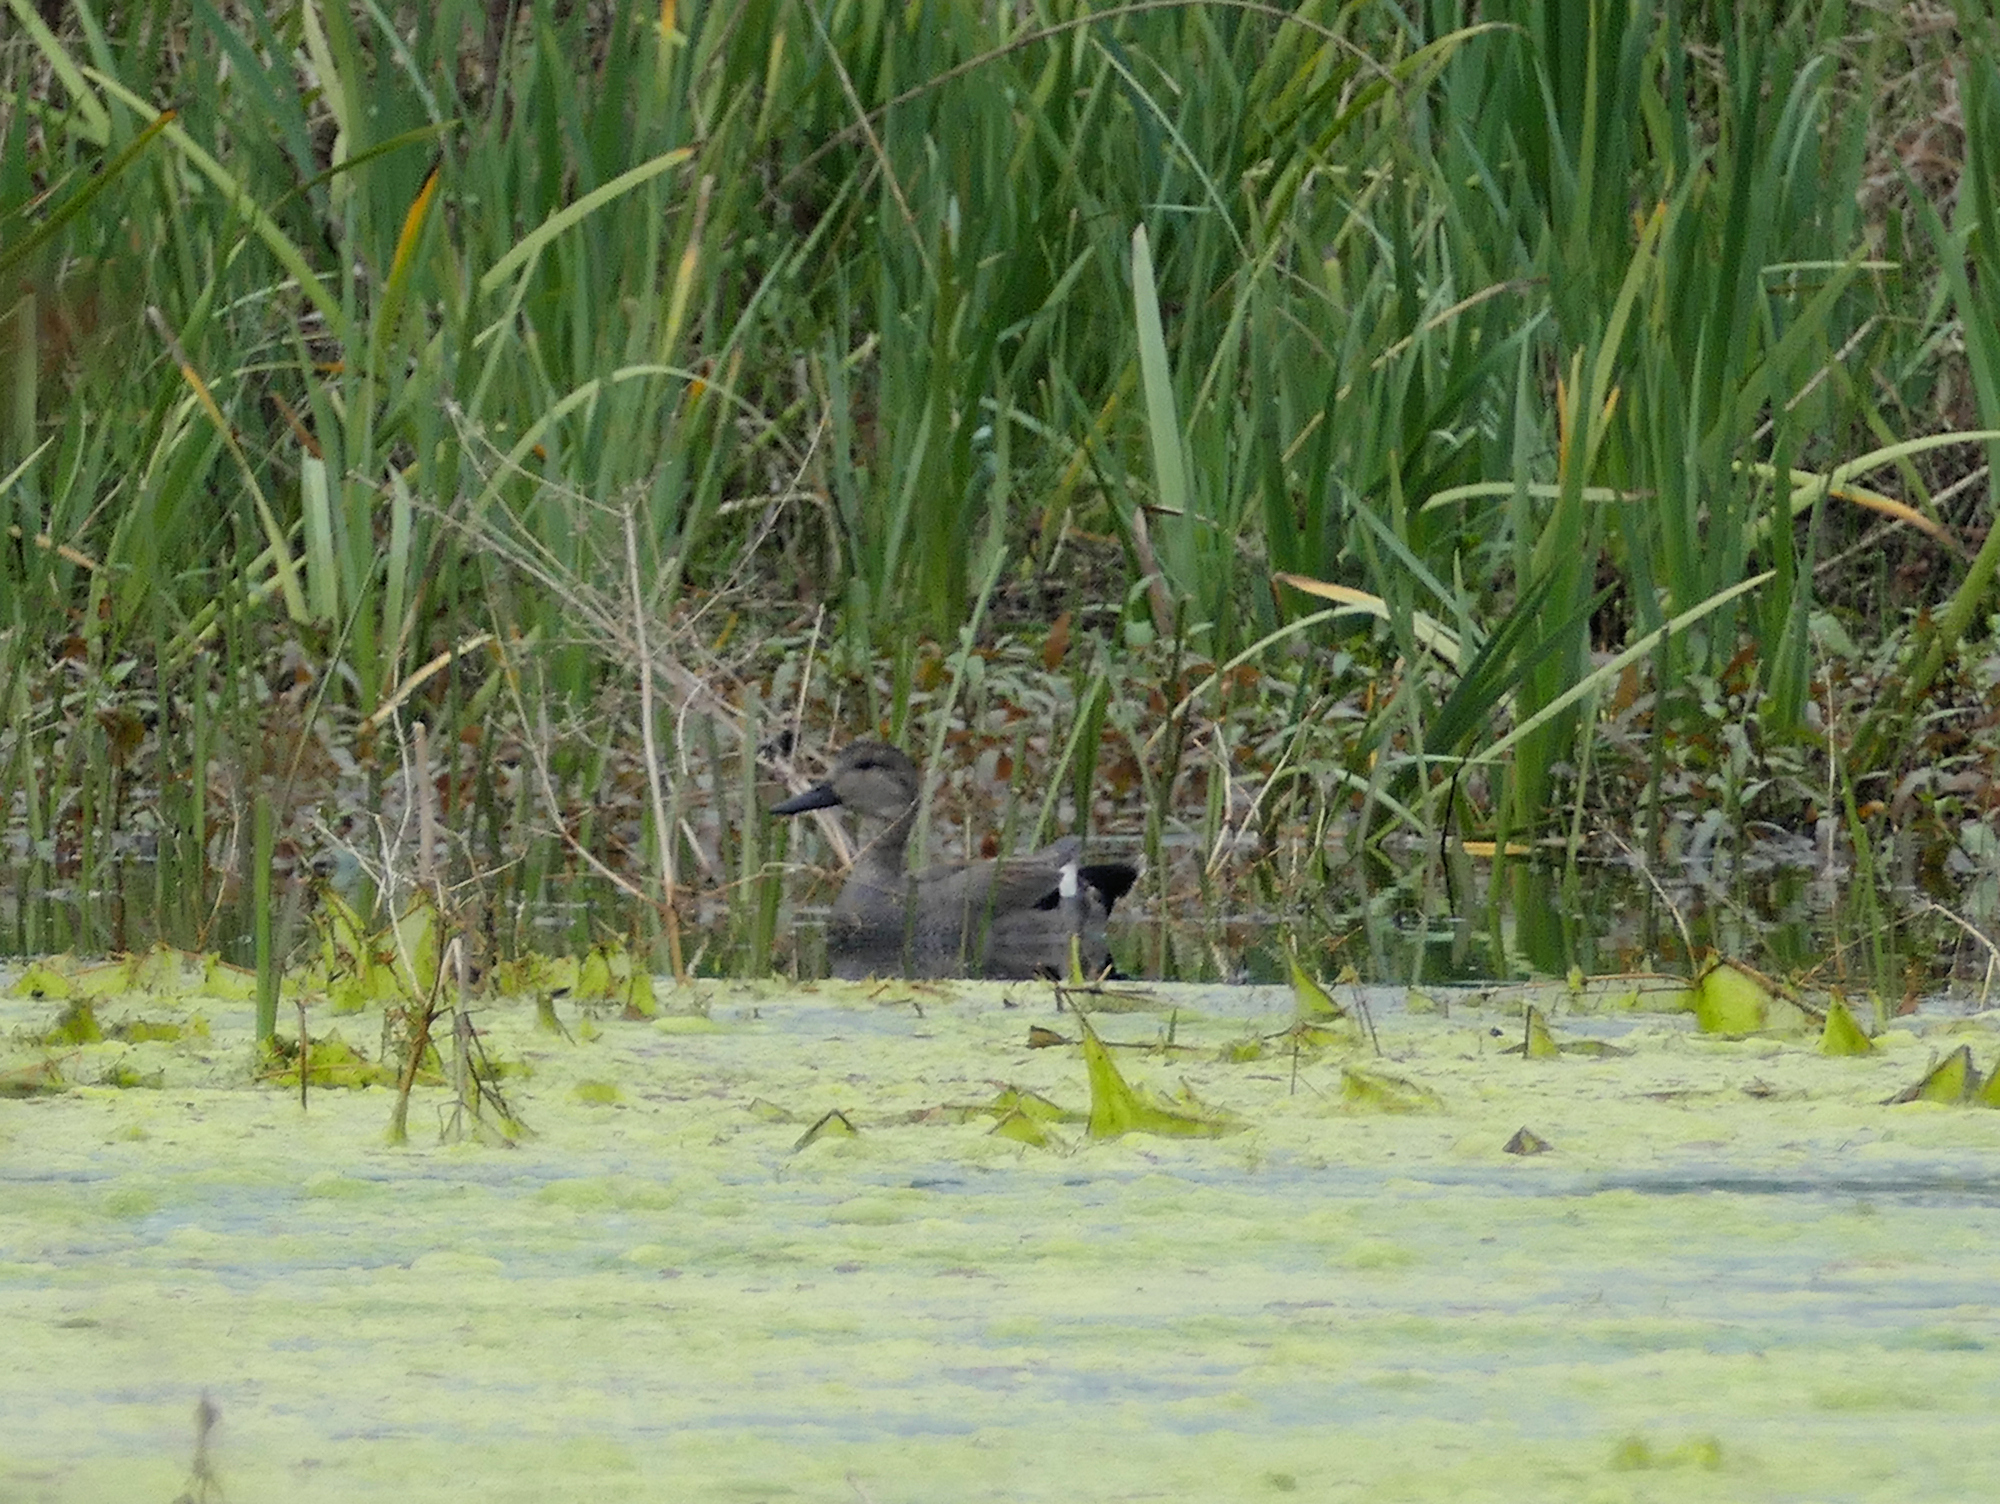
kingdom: Animalia
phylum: Chordata
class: Aves
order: Anseriformes
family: Anatidae
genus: Mareca
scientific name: Mareca strepera
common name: Gadwall
